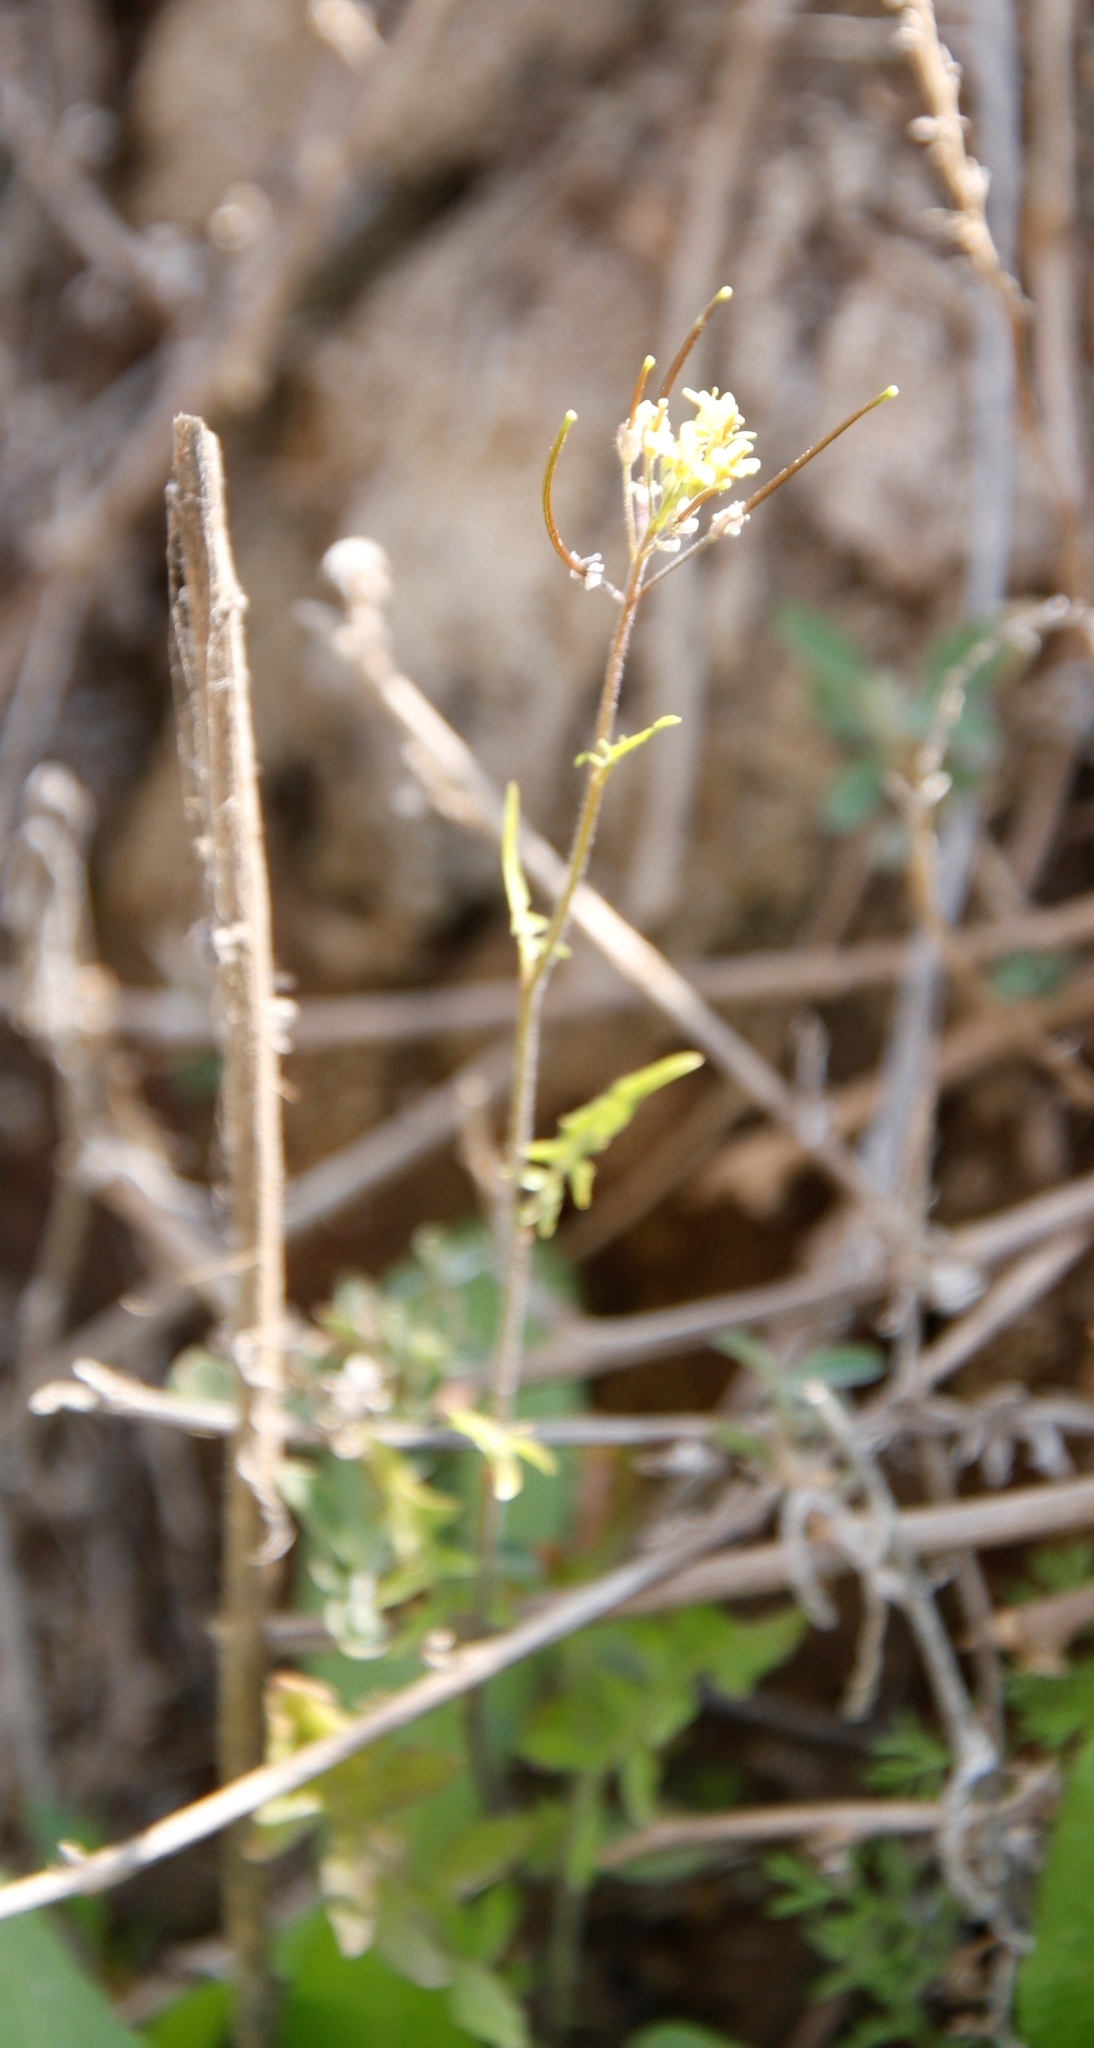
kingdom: Plantae
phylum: Tracheophyta
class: Magnoliopsida
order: Brassicales
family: Brassicaceae
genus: Sisymbrium
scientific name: Sisymbrium capense
